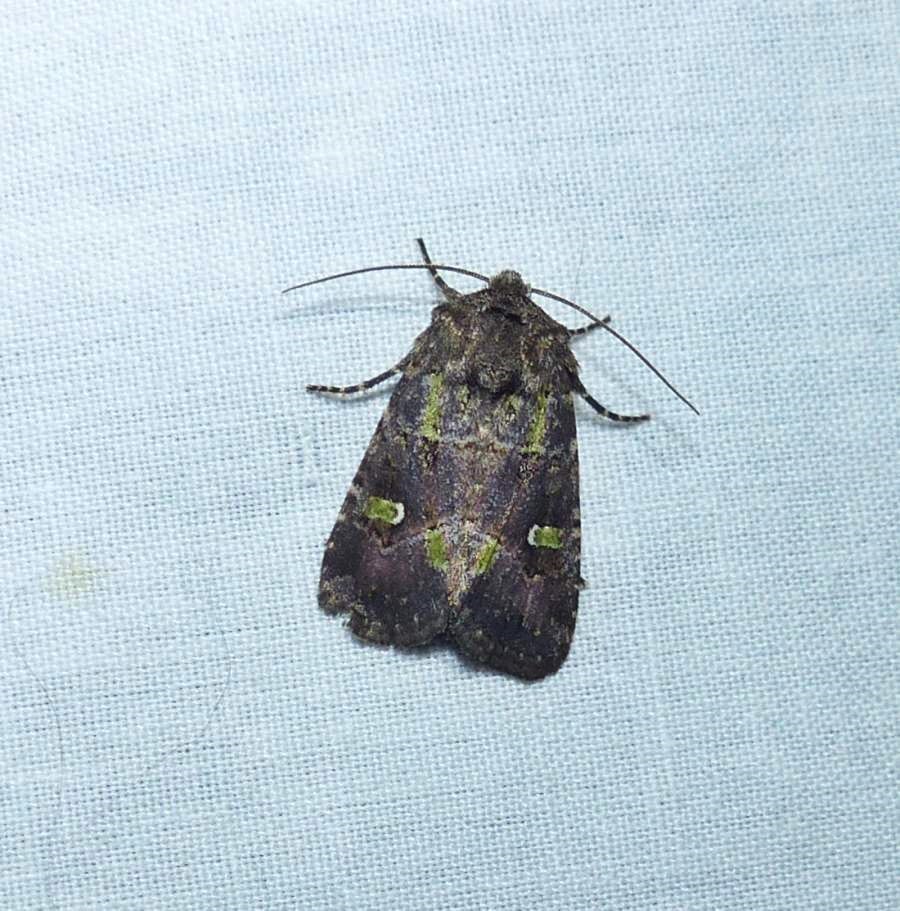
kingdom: Animalia
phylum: Arthropoda
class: Insecta
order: Lepidoptera
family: Noctuidae
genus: Lacinipolia
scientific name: Lacinipolia renigera
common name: Kidney-spotted minor
